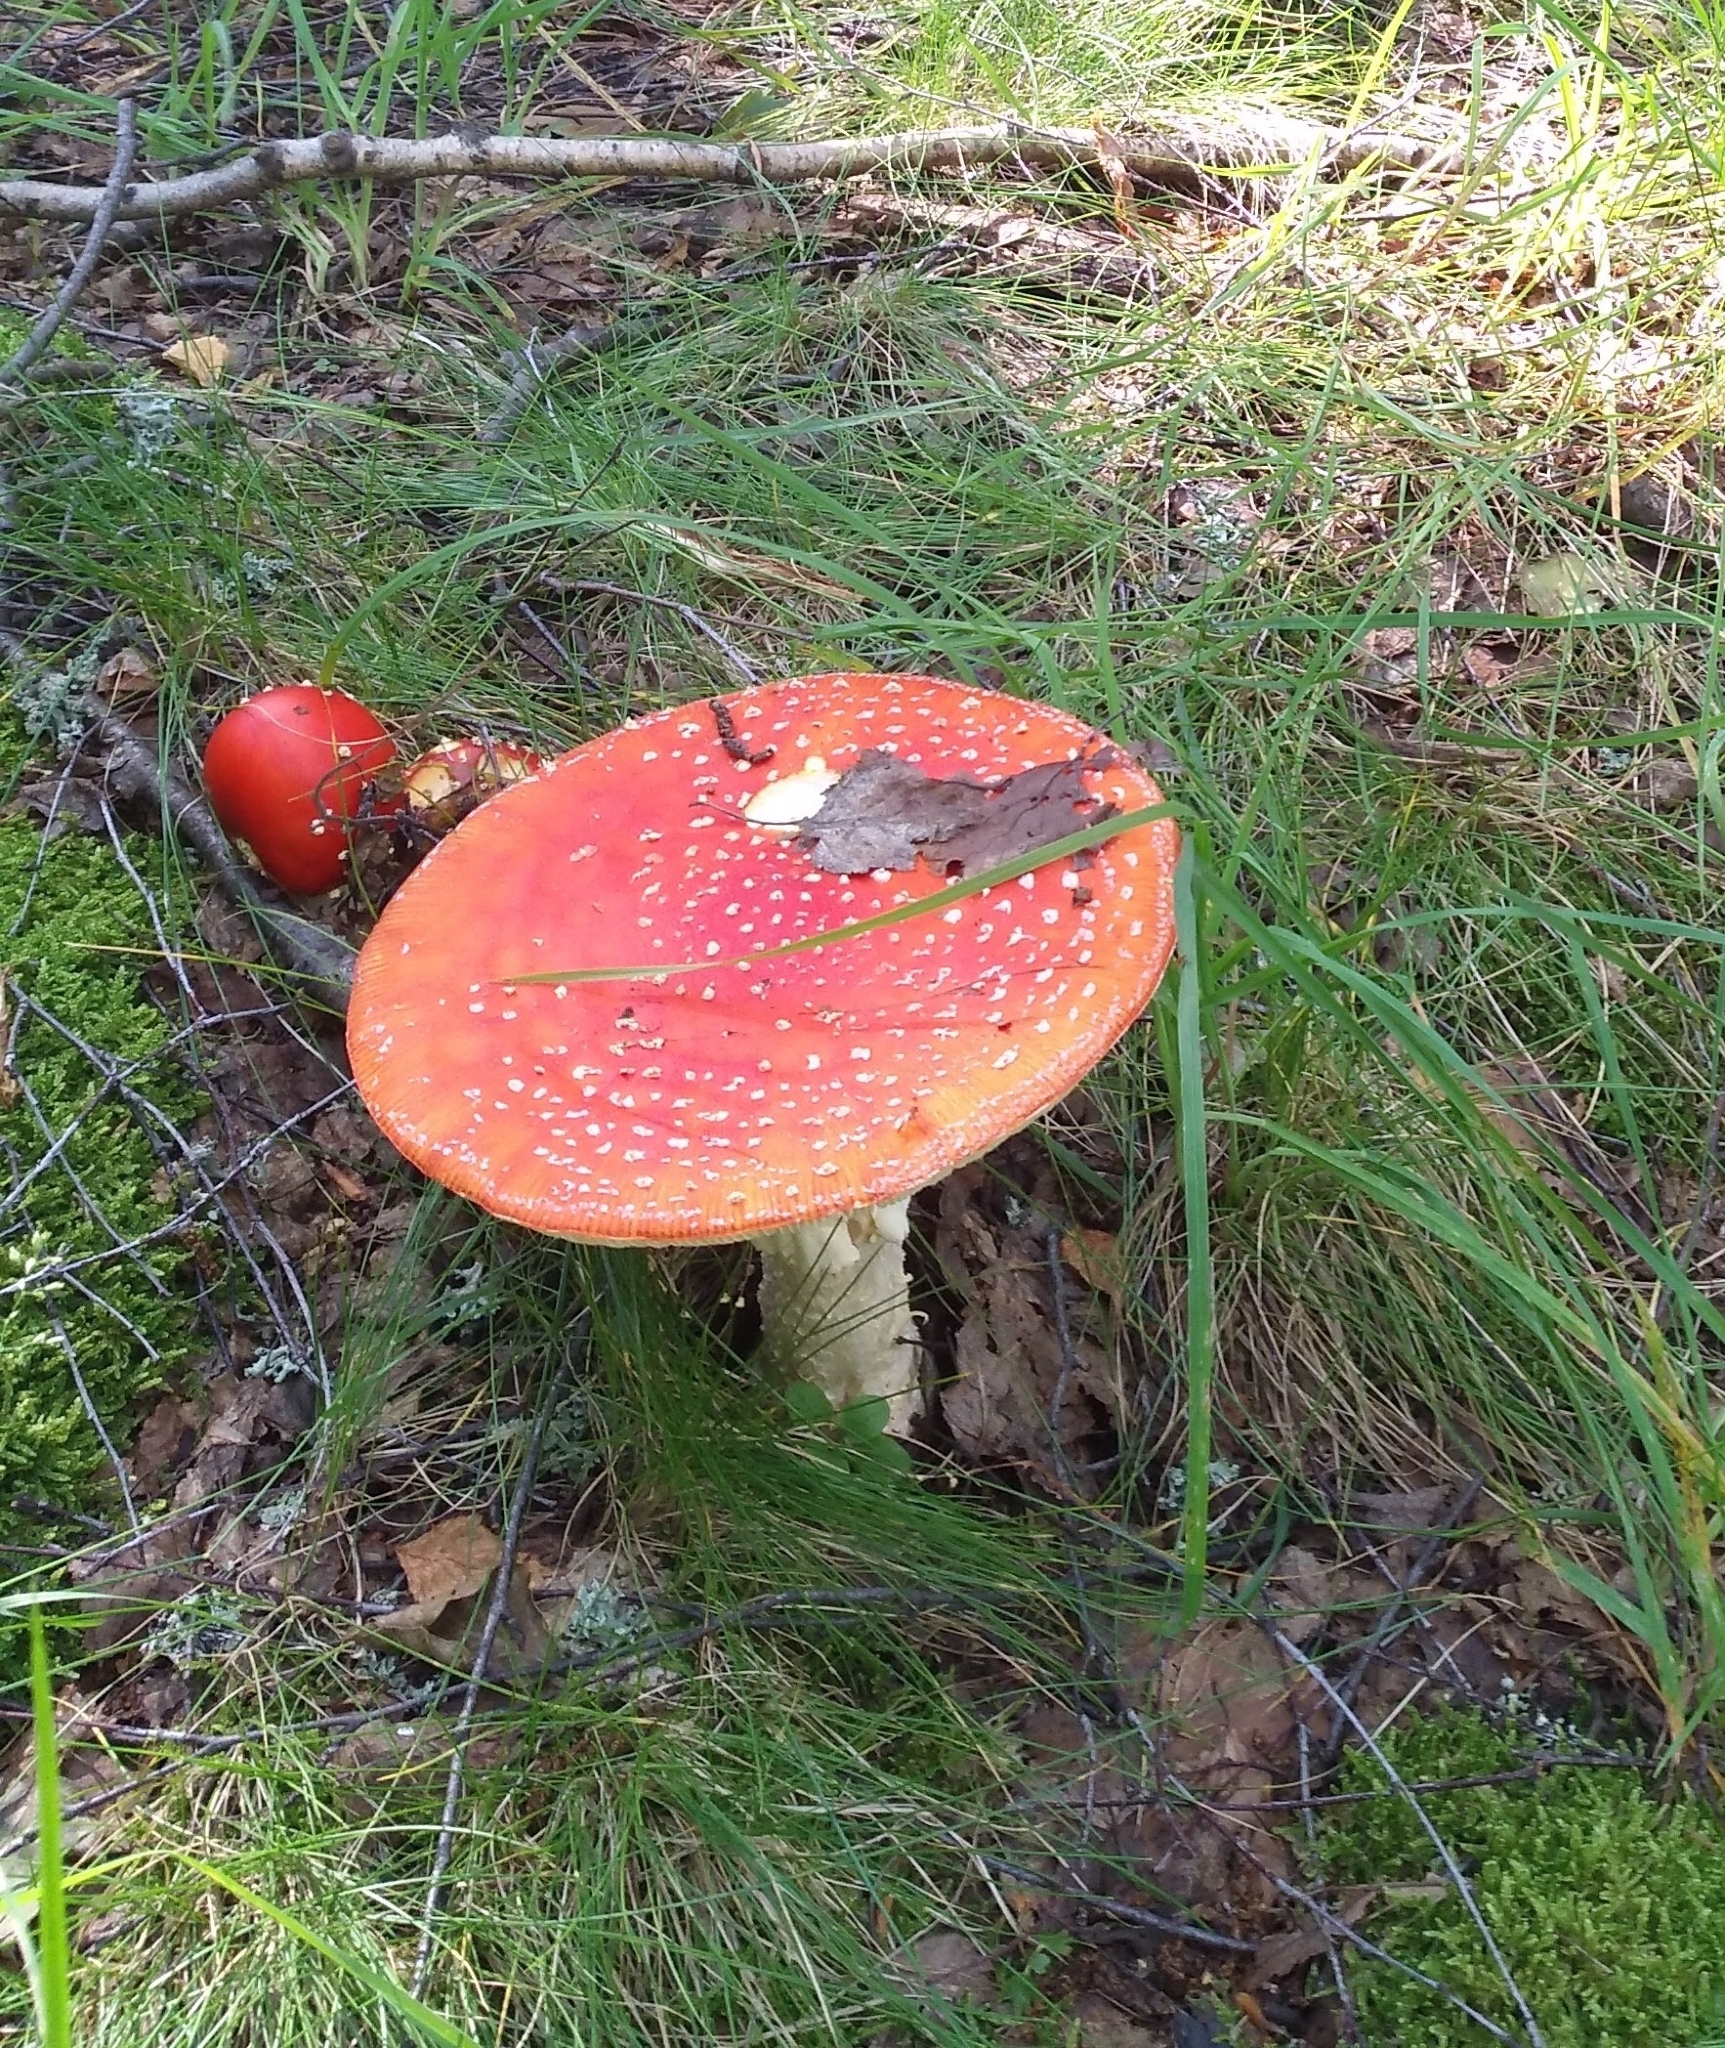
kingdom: Fungi
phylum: Basidiomycota
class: Agaricomycetes
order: Agaricales
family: Amanitaceae
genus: Amanita
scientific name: Amanita muscaria
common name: Fly agaric
